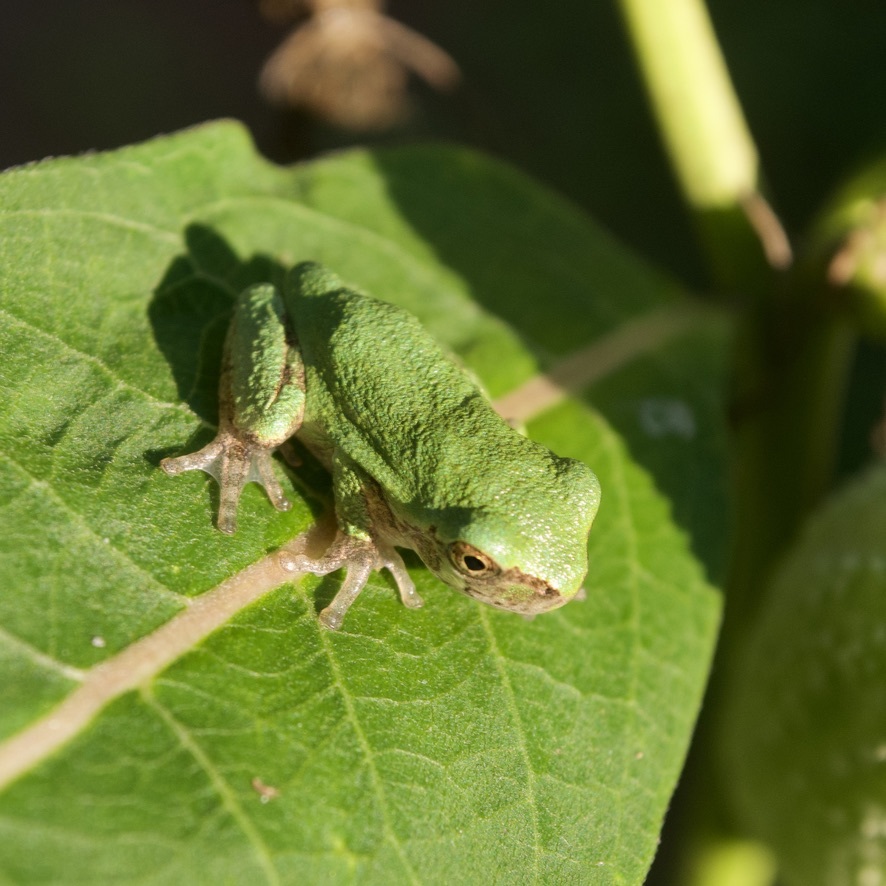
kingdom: Animalia
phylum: Chordata
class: Amphibia
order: Anura
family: Hylidae
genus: Dryophytes
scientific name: Dryophytes versicolor
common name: Gray treefrog
